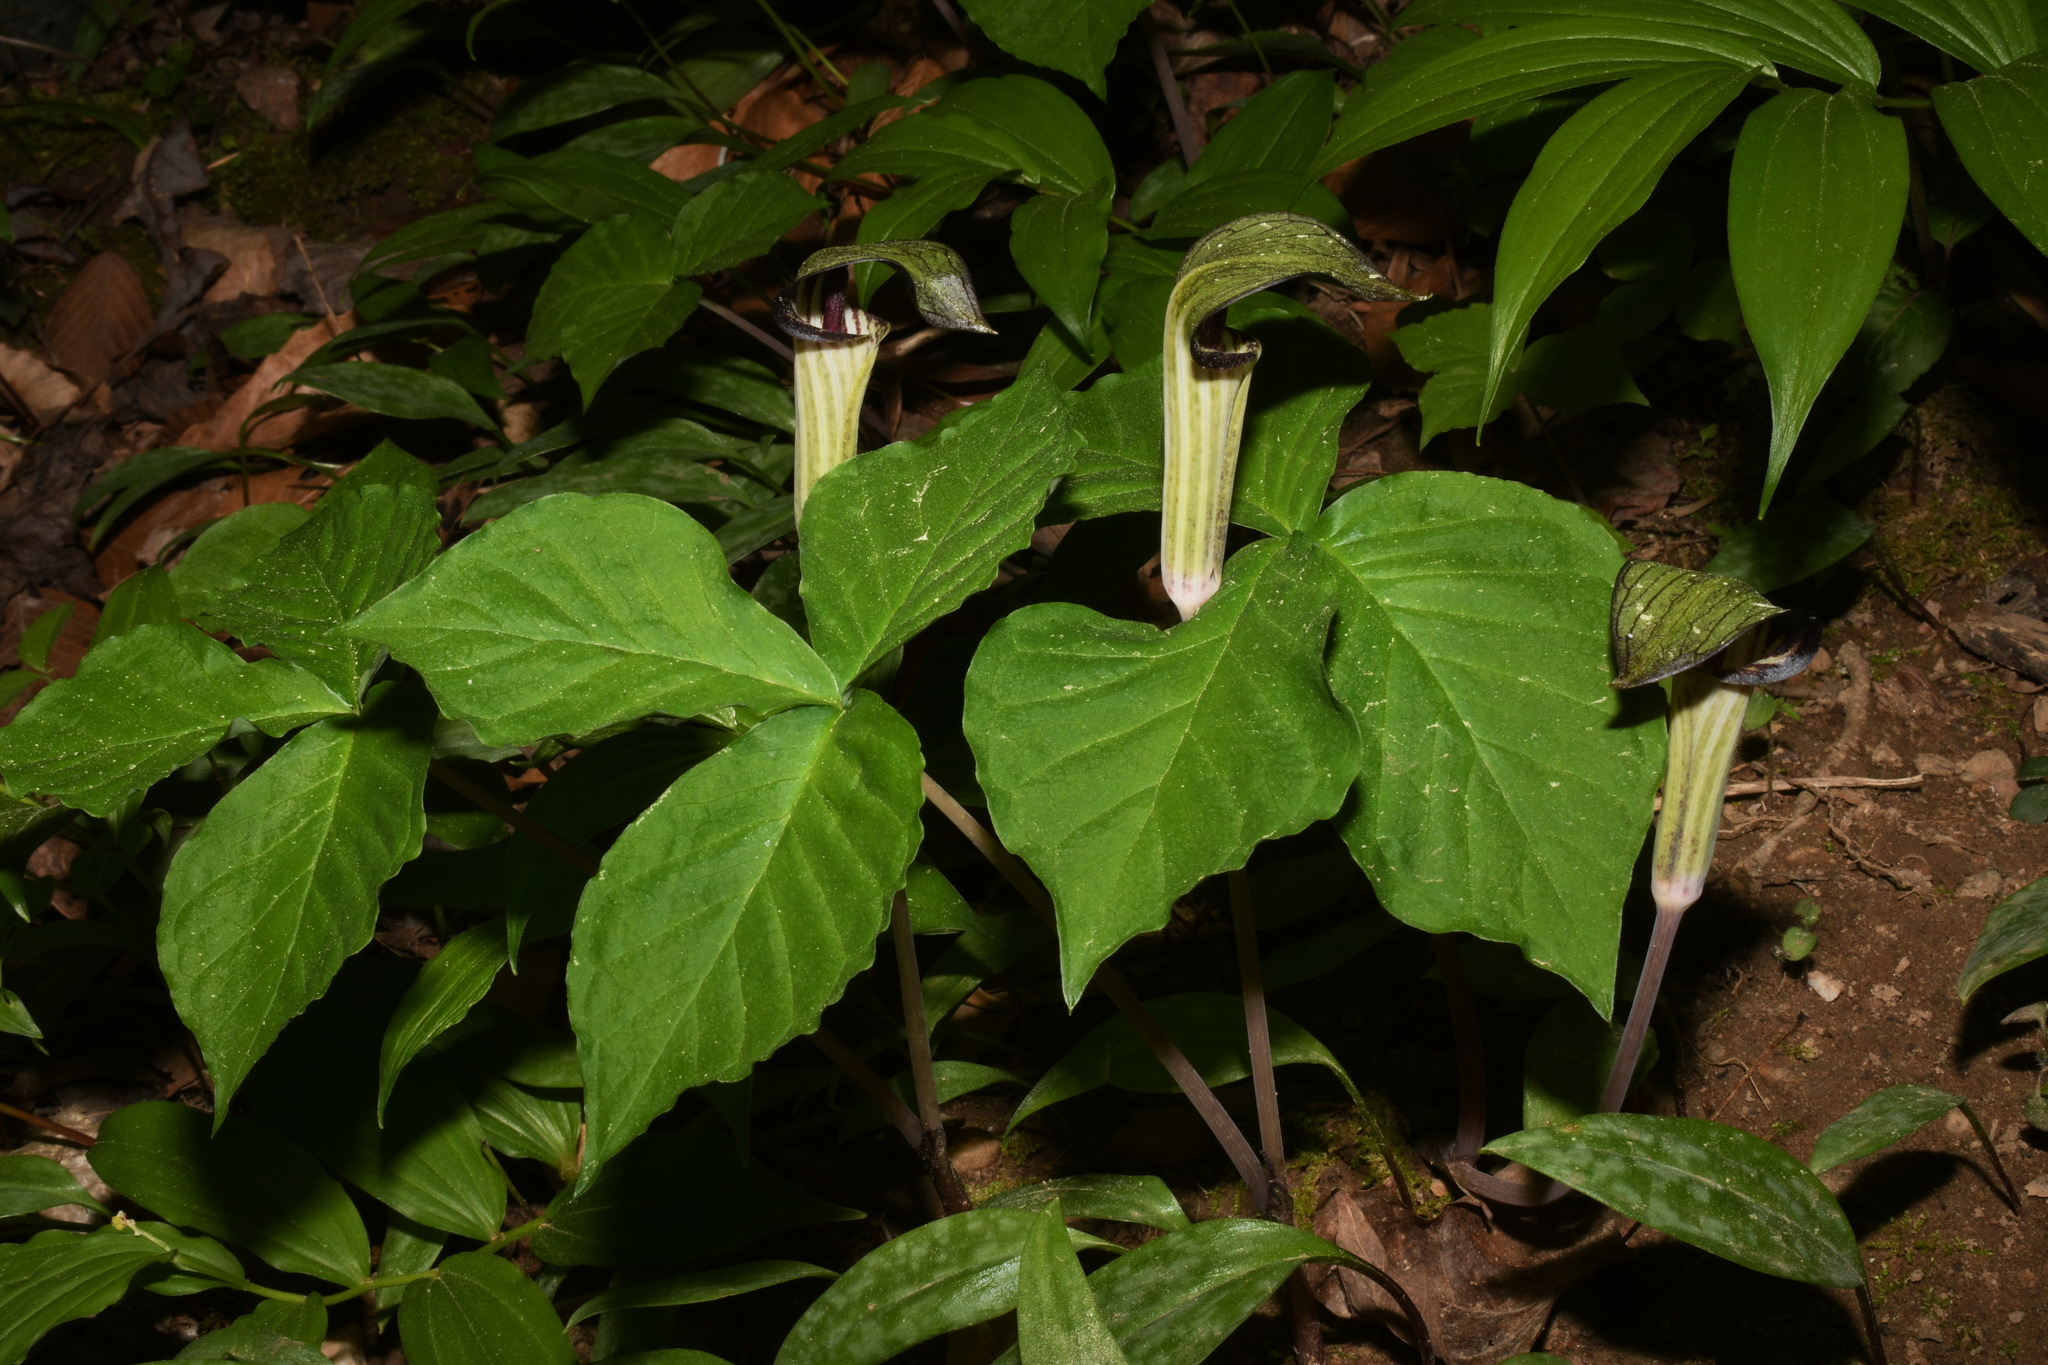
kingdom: Plantae
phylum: Tracheophyta
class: Liliopsida
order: Alismatales
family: Araceae
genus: Arisaema
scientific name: Arisaema triphyllum
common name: Jack-in-the-pulpit
